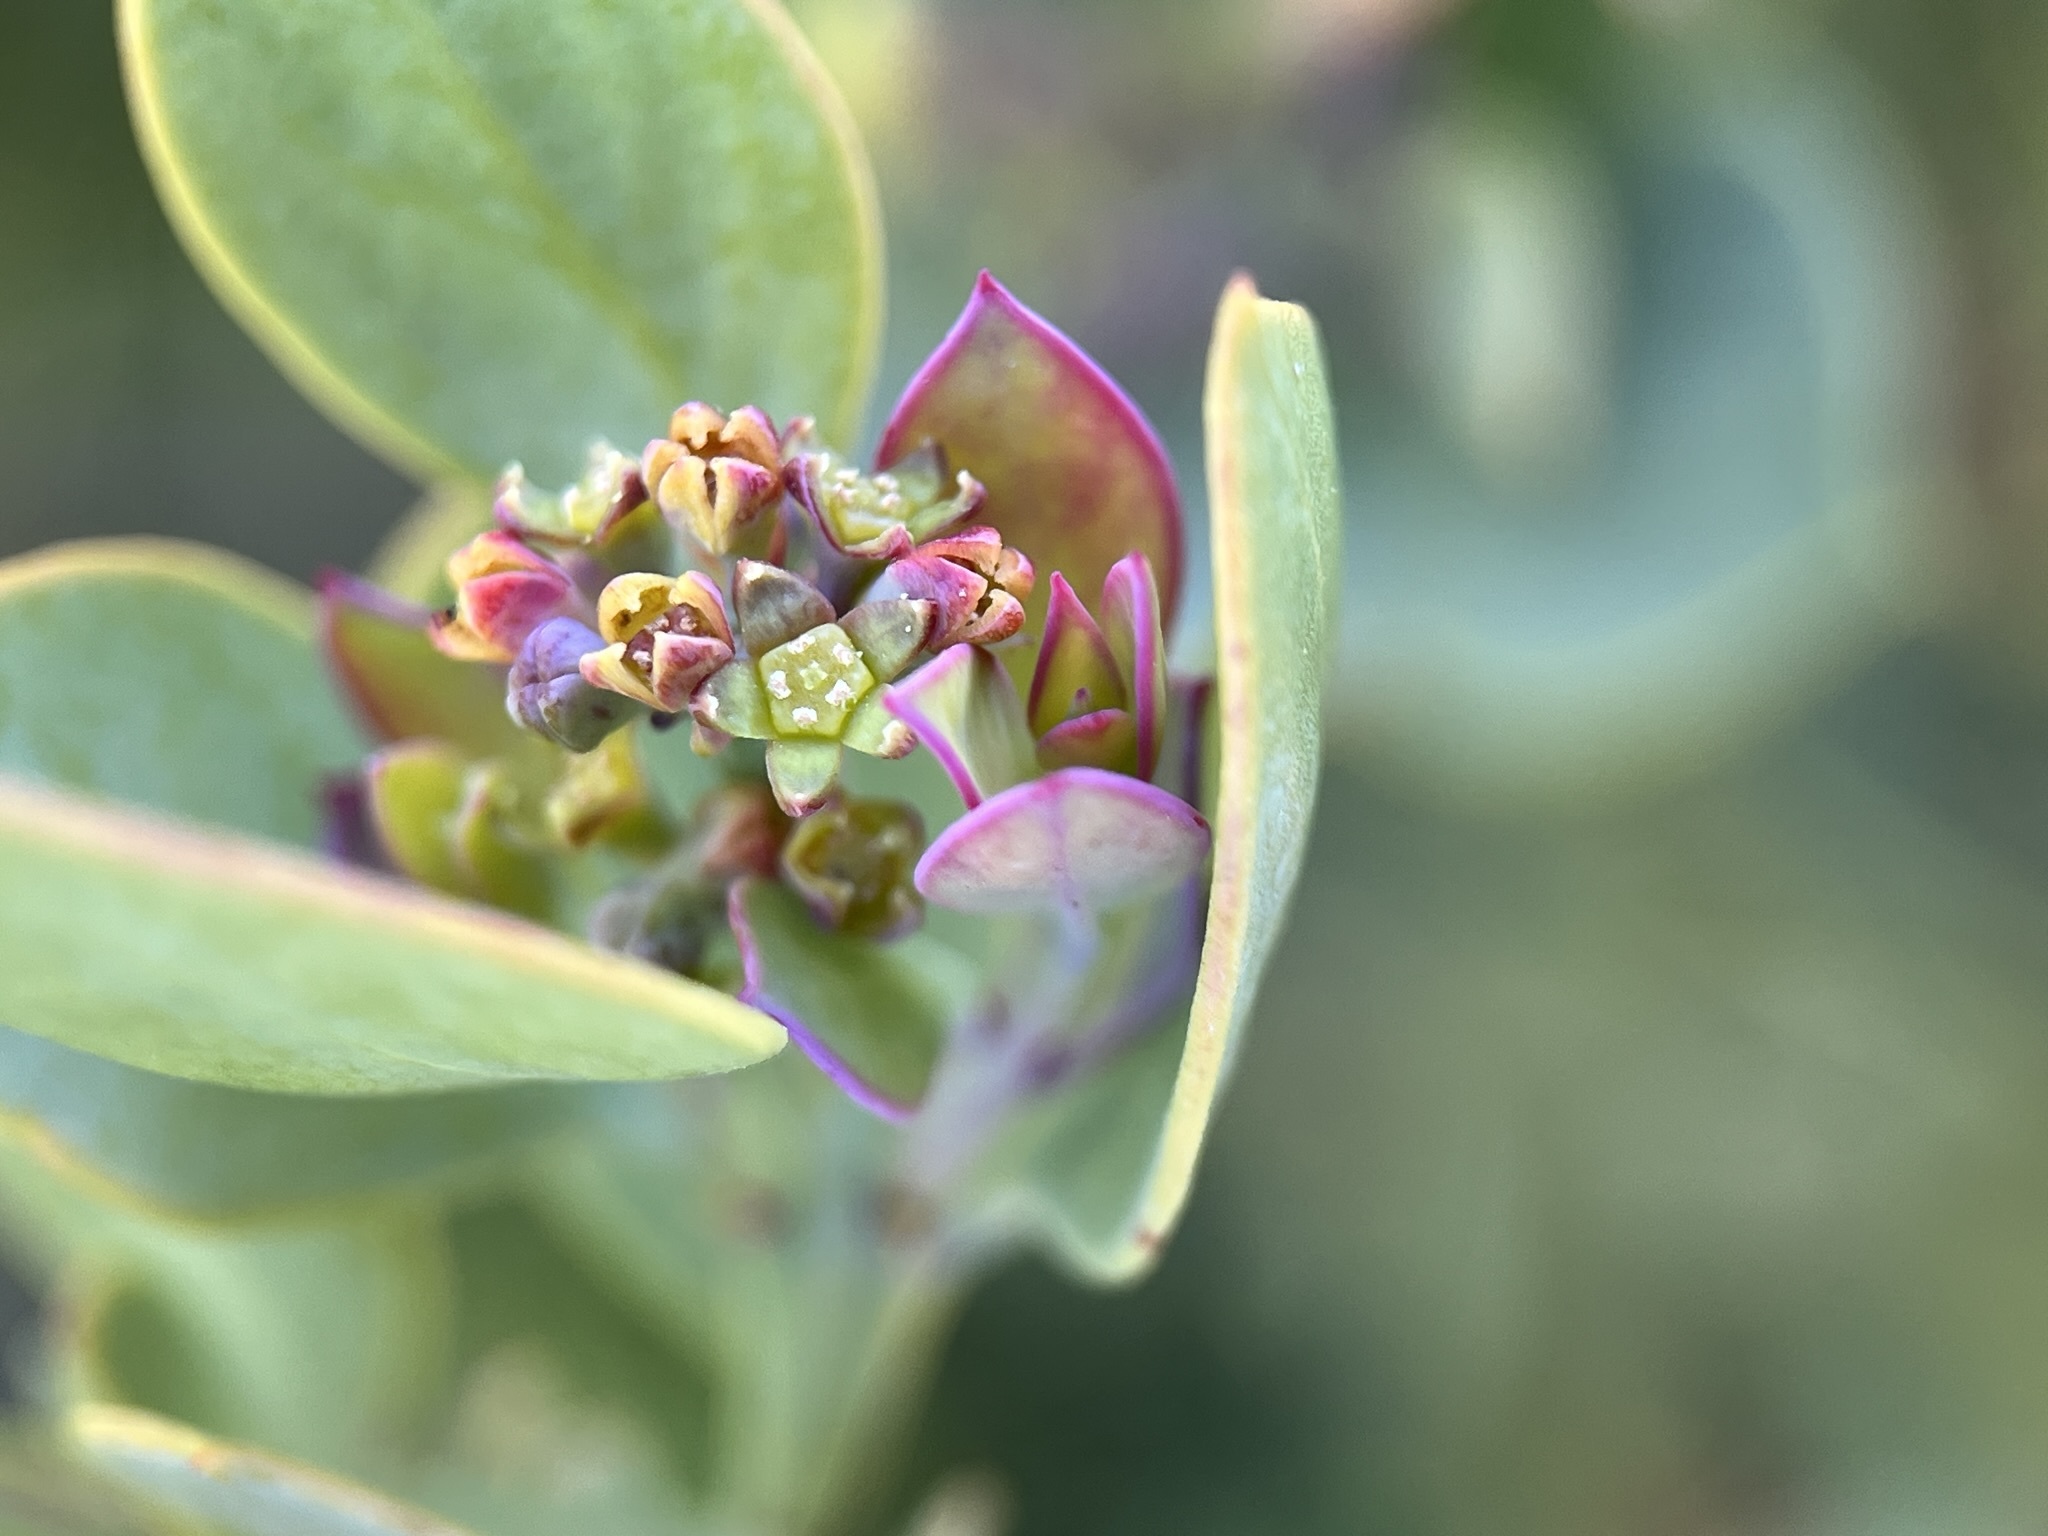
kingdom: Plantae
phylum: Tracheophyta
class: Magnoliopsida
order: Santalales
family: Santalaceae
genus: Osyris
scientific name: Osyris compressa
